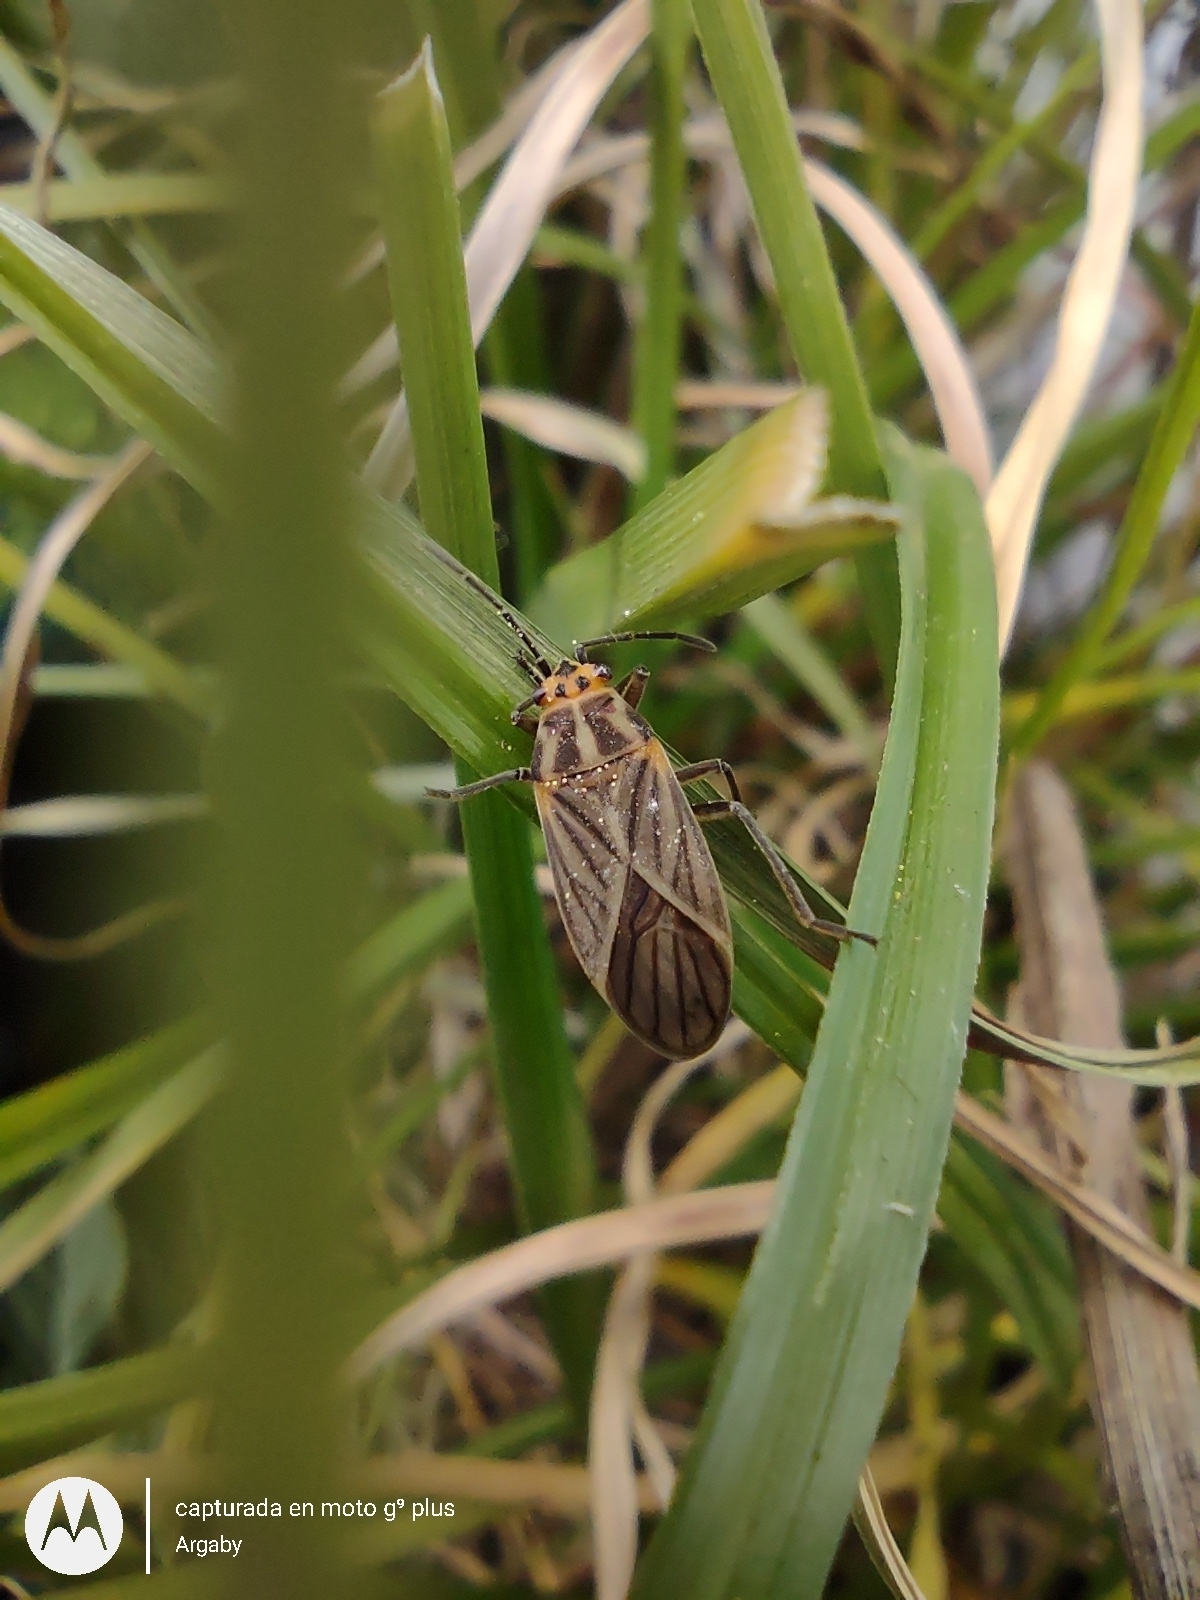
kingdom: Animalia
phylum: Arthropoda
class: Insecta
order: Hemiptera
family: Lygaeidae
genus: Torvochrimnus
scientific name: Torvochrimnus poeyi
